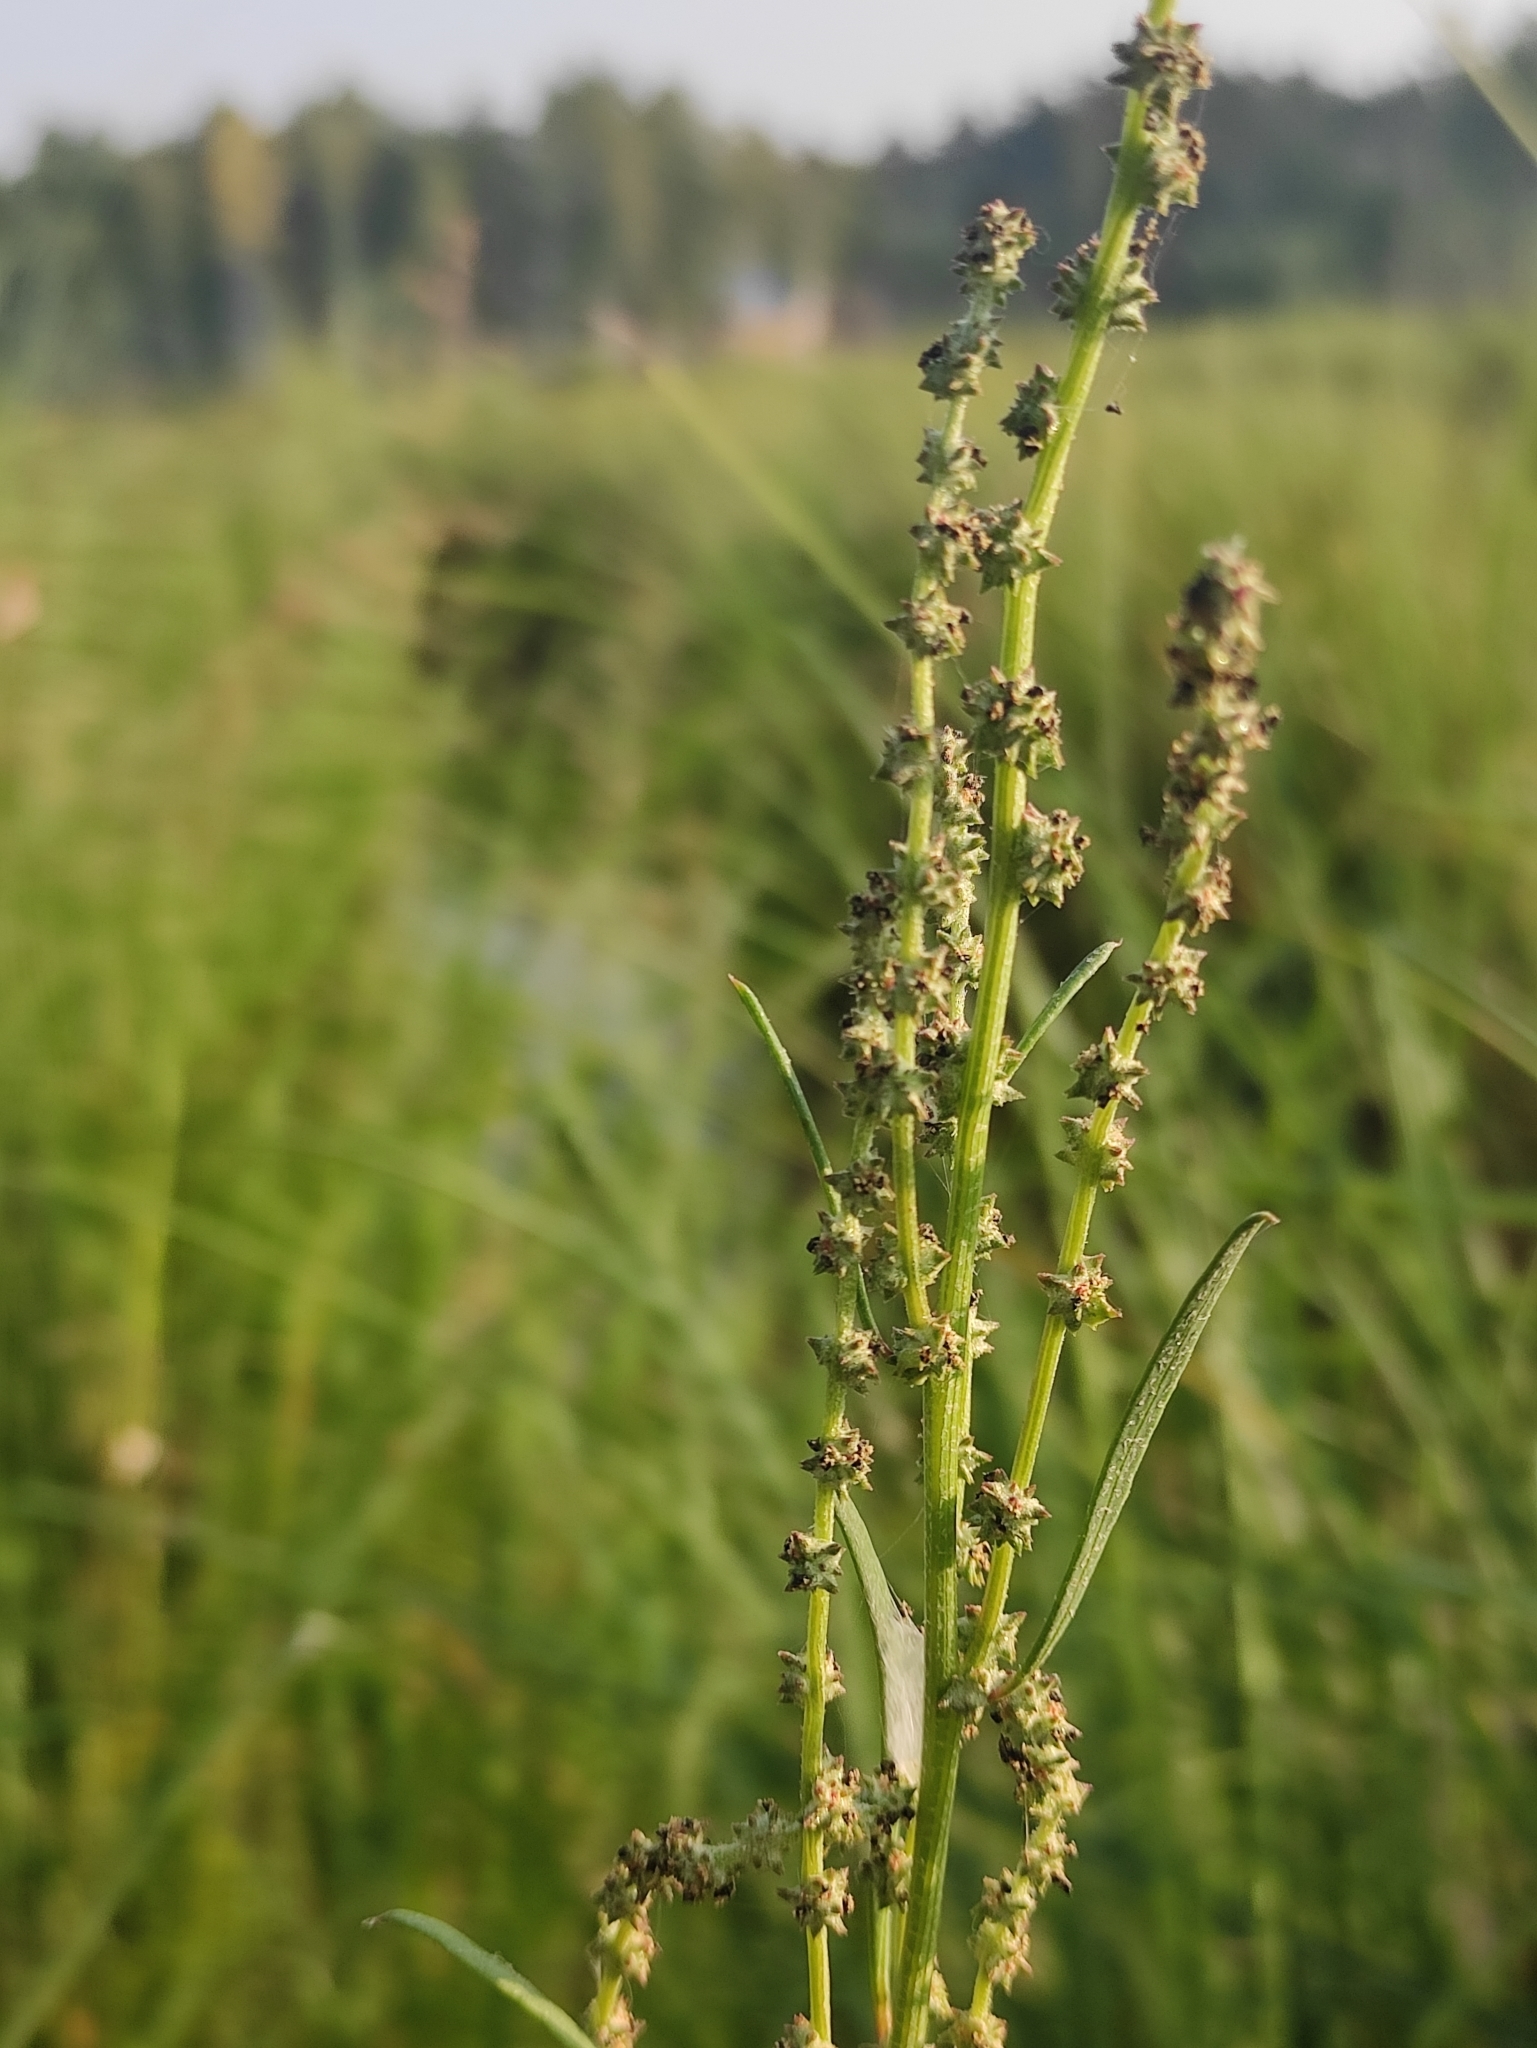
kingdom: Plantae
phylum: Tracheophyta
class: Magnoliopsida
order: Caryophyllales
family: Amaranthaceae
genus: Atriplex
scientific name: Atriplex patens
